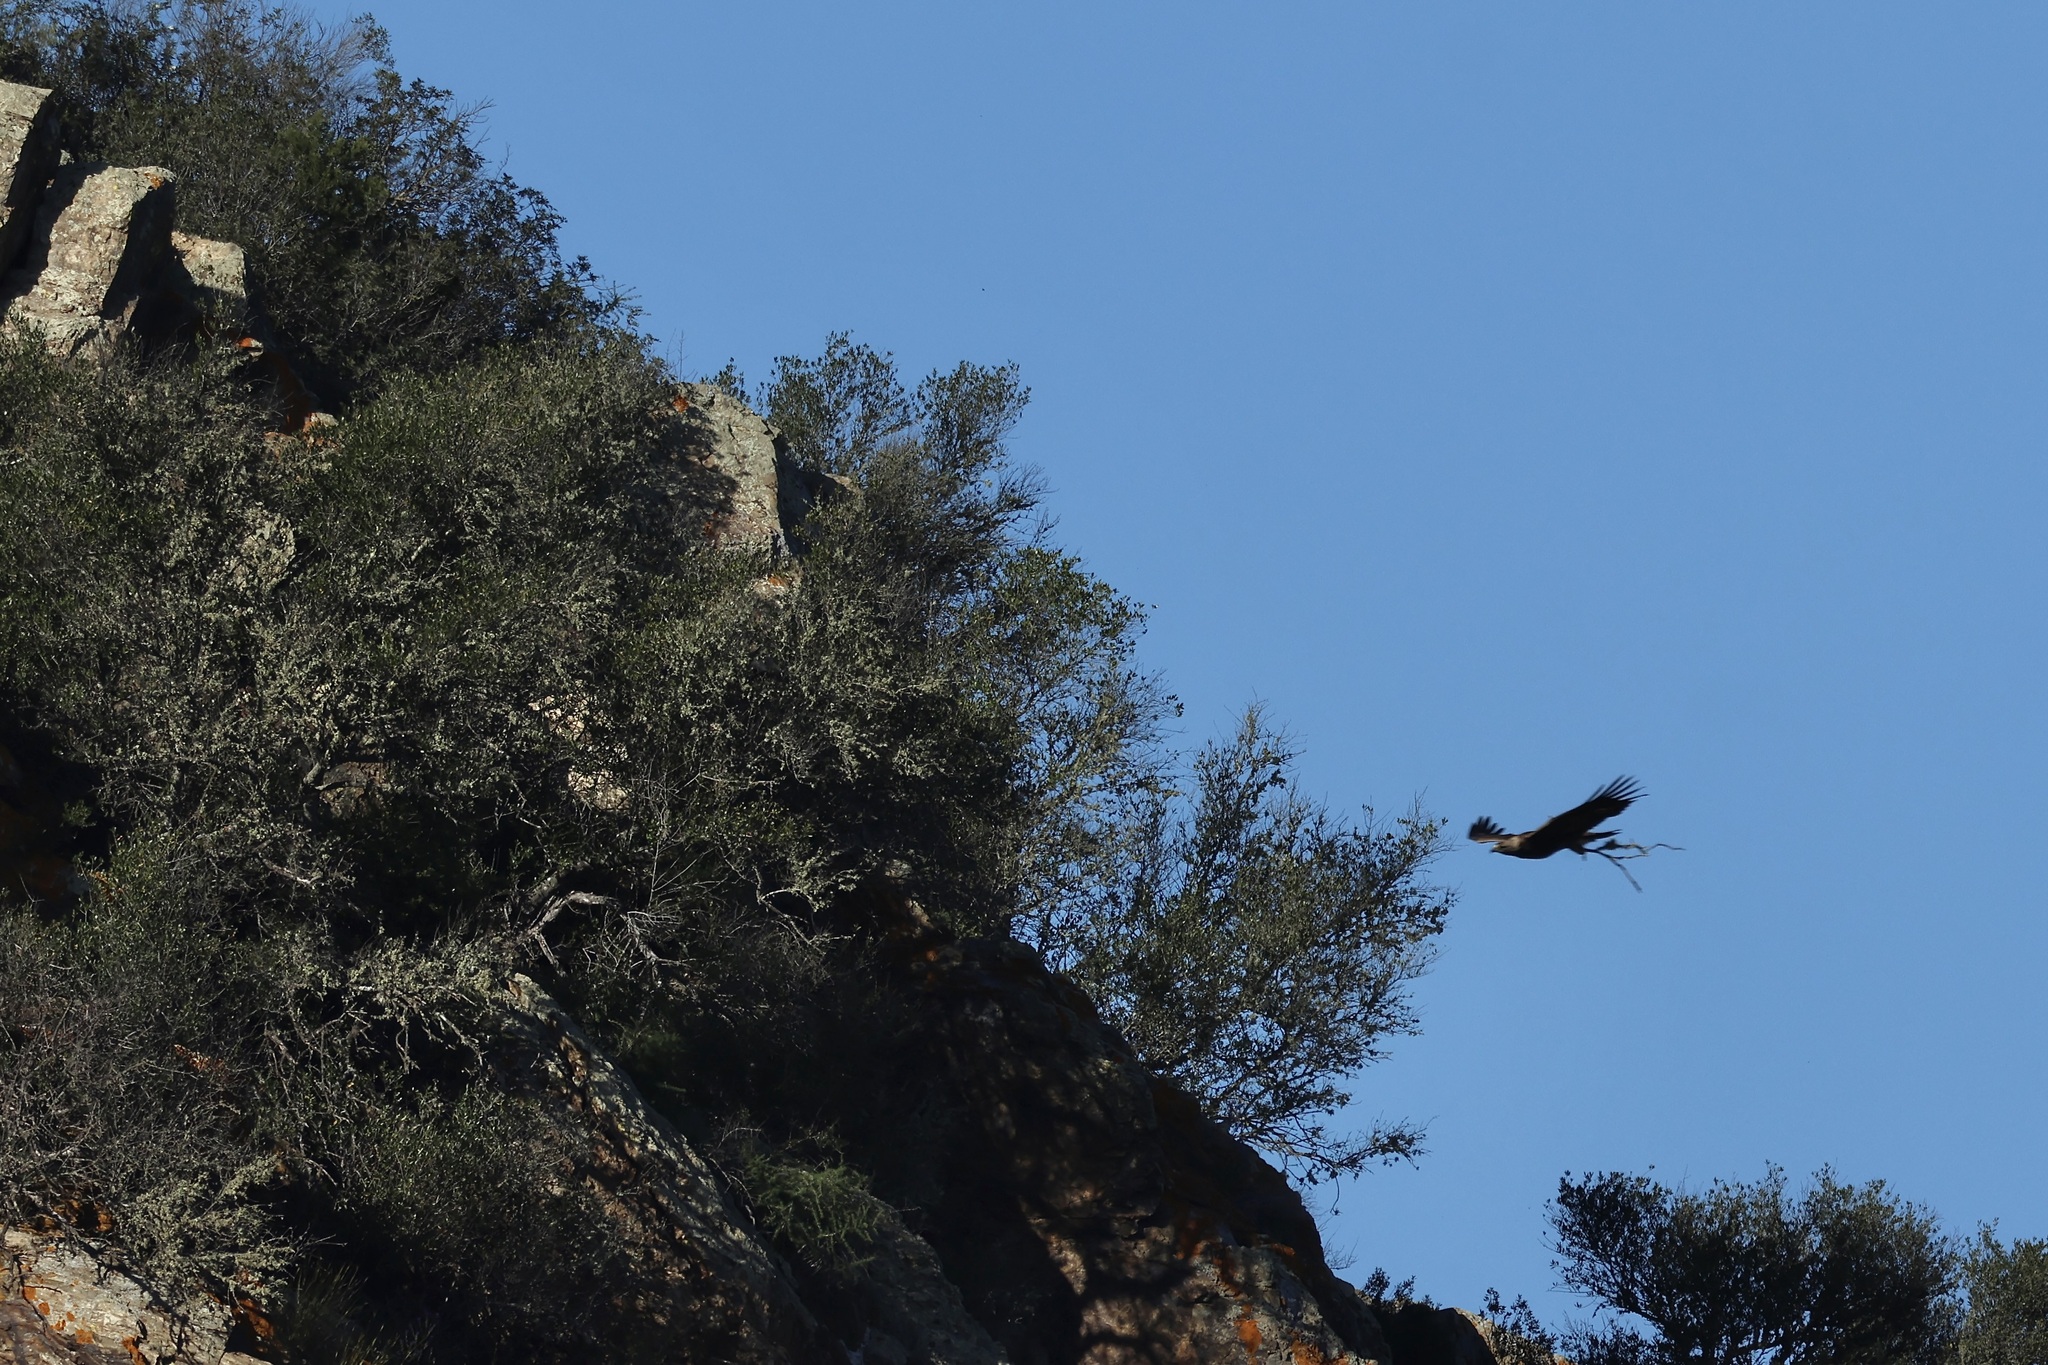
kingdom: Animalia
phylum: Chordata
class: Aves
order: Accipitriformes
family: Accipitridae
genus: Aquila
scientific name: Aquila chrysaetos
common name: Golden eagle
